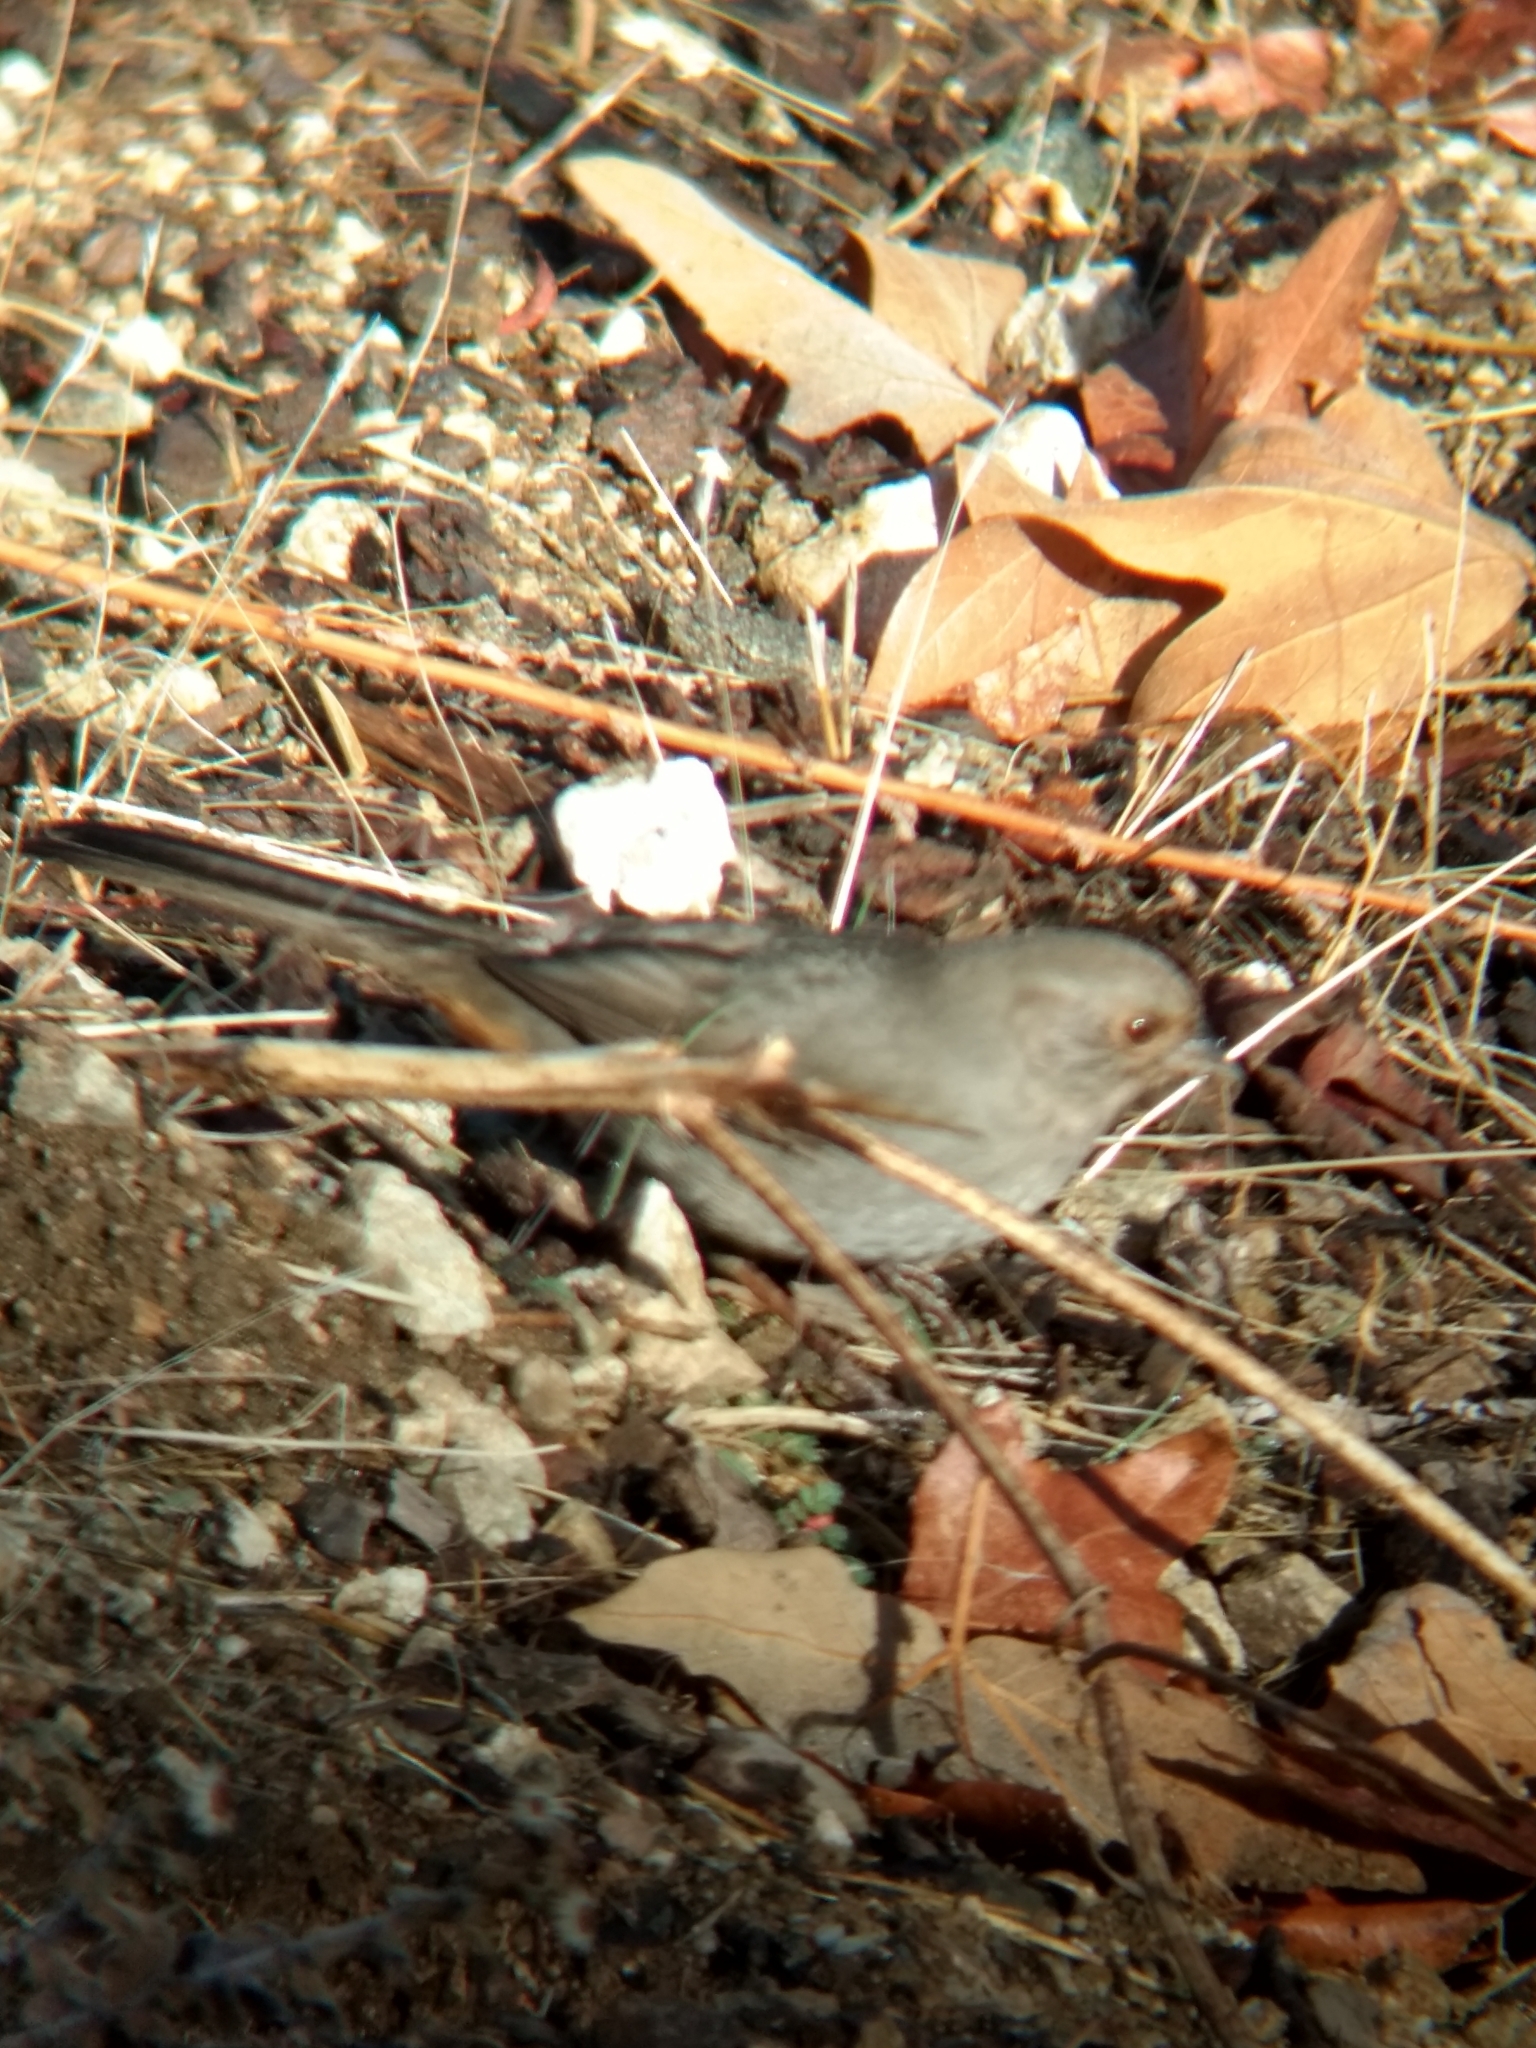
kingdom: Animalia
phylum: Chordata
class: Aves
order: Passeriformes
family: Passerellidae
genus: Melozone
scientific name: Melozone crissalis
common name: California towhee
